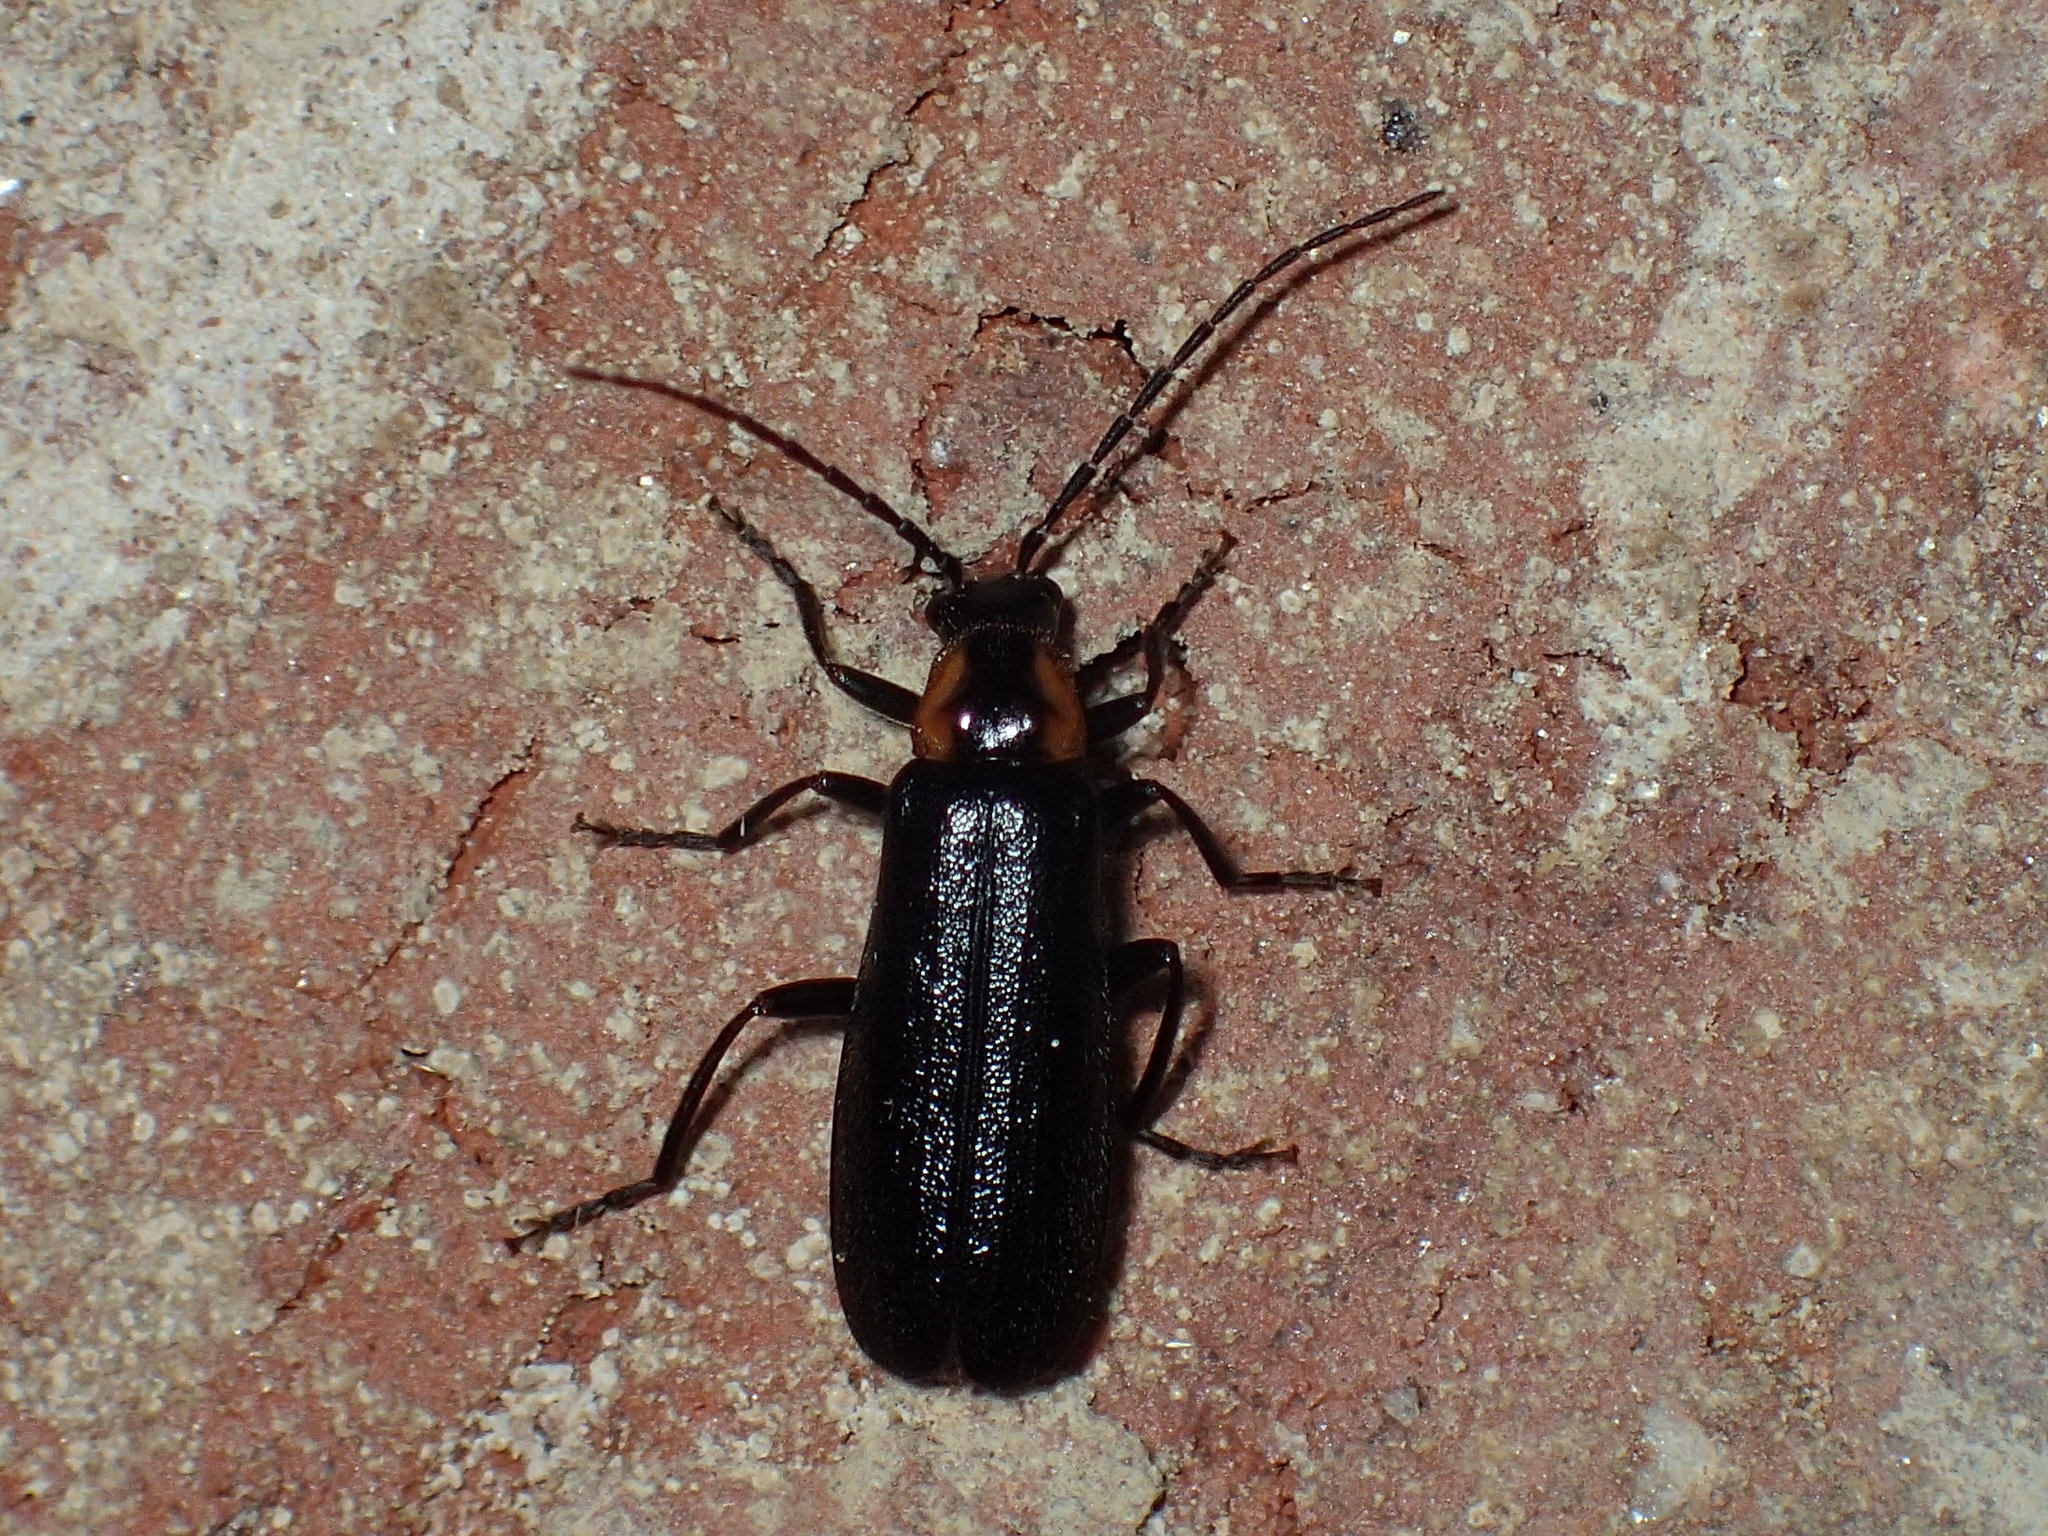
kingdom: Animalia
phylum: Arthropoda
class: Insecta
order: Coleoptera
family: Cantharidae
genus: Rhagonycha
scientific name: Rhagonycha angulata
